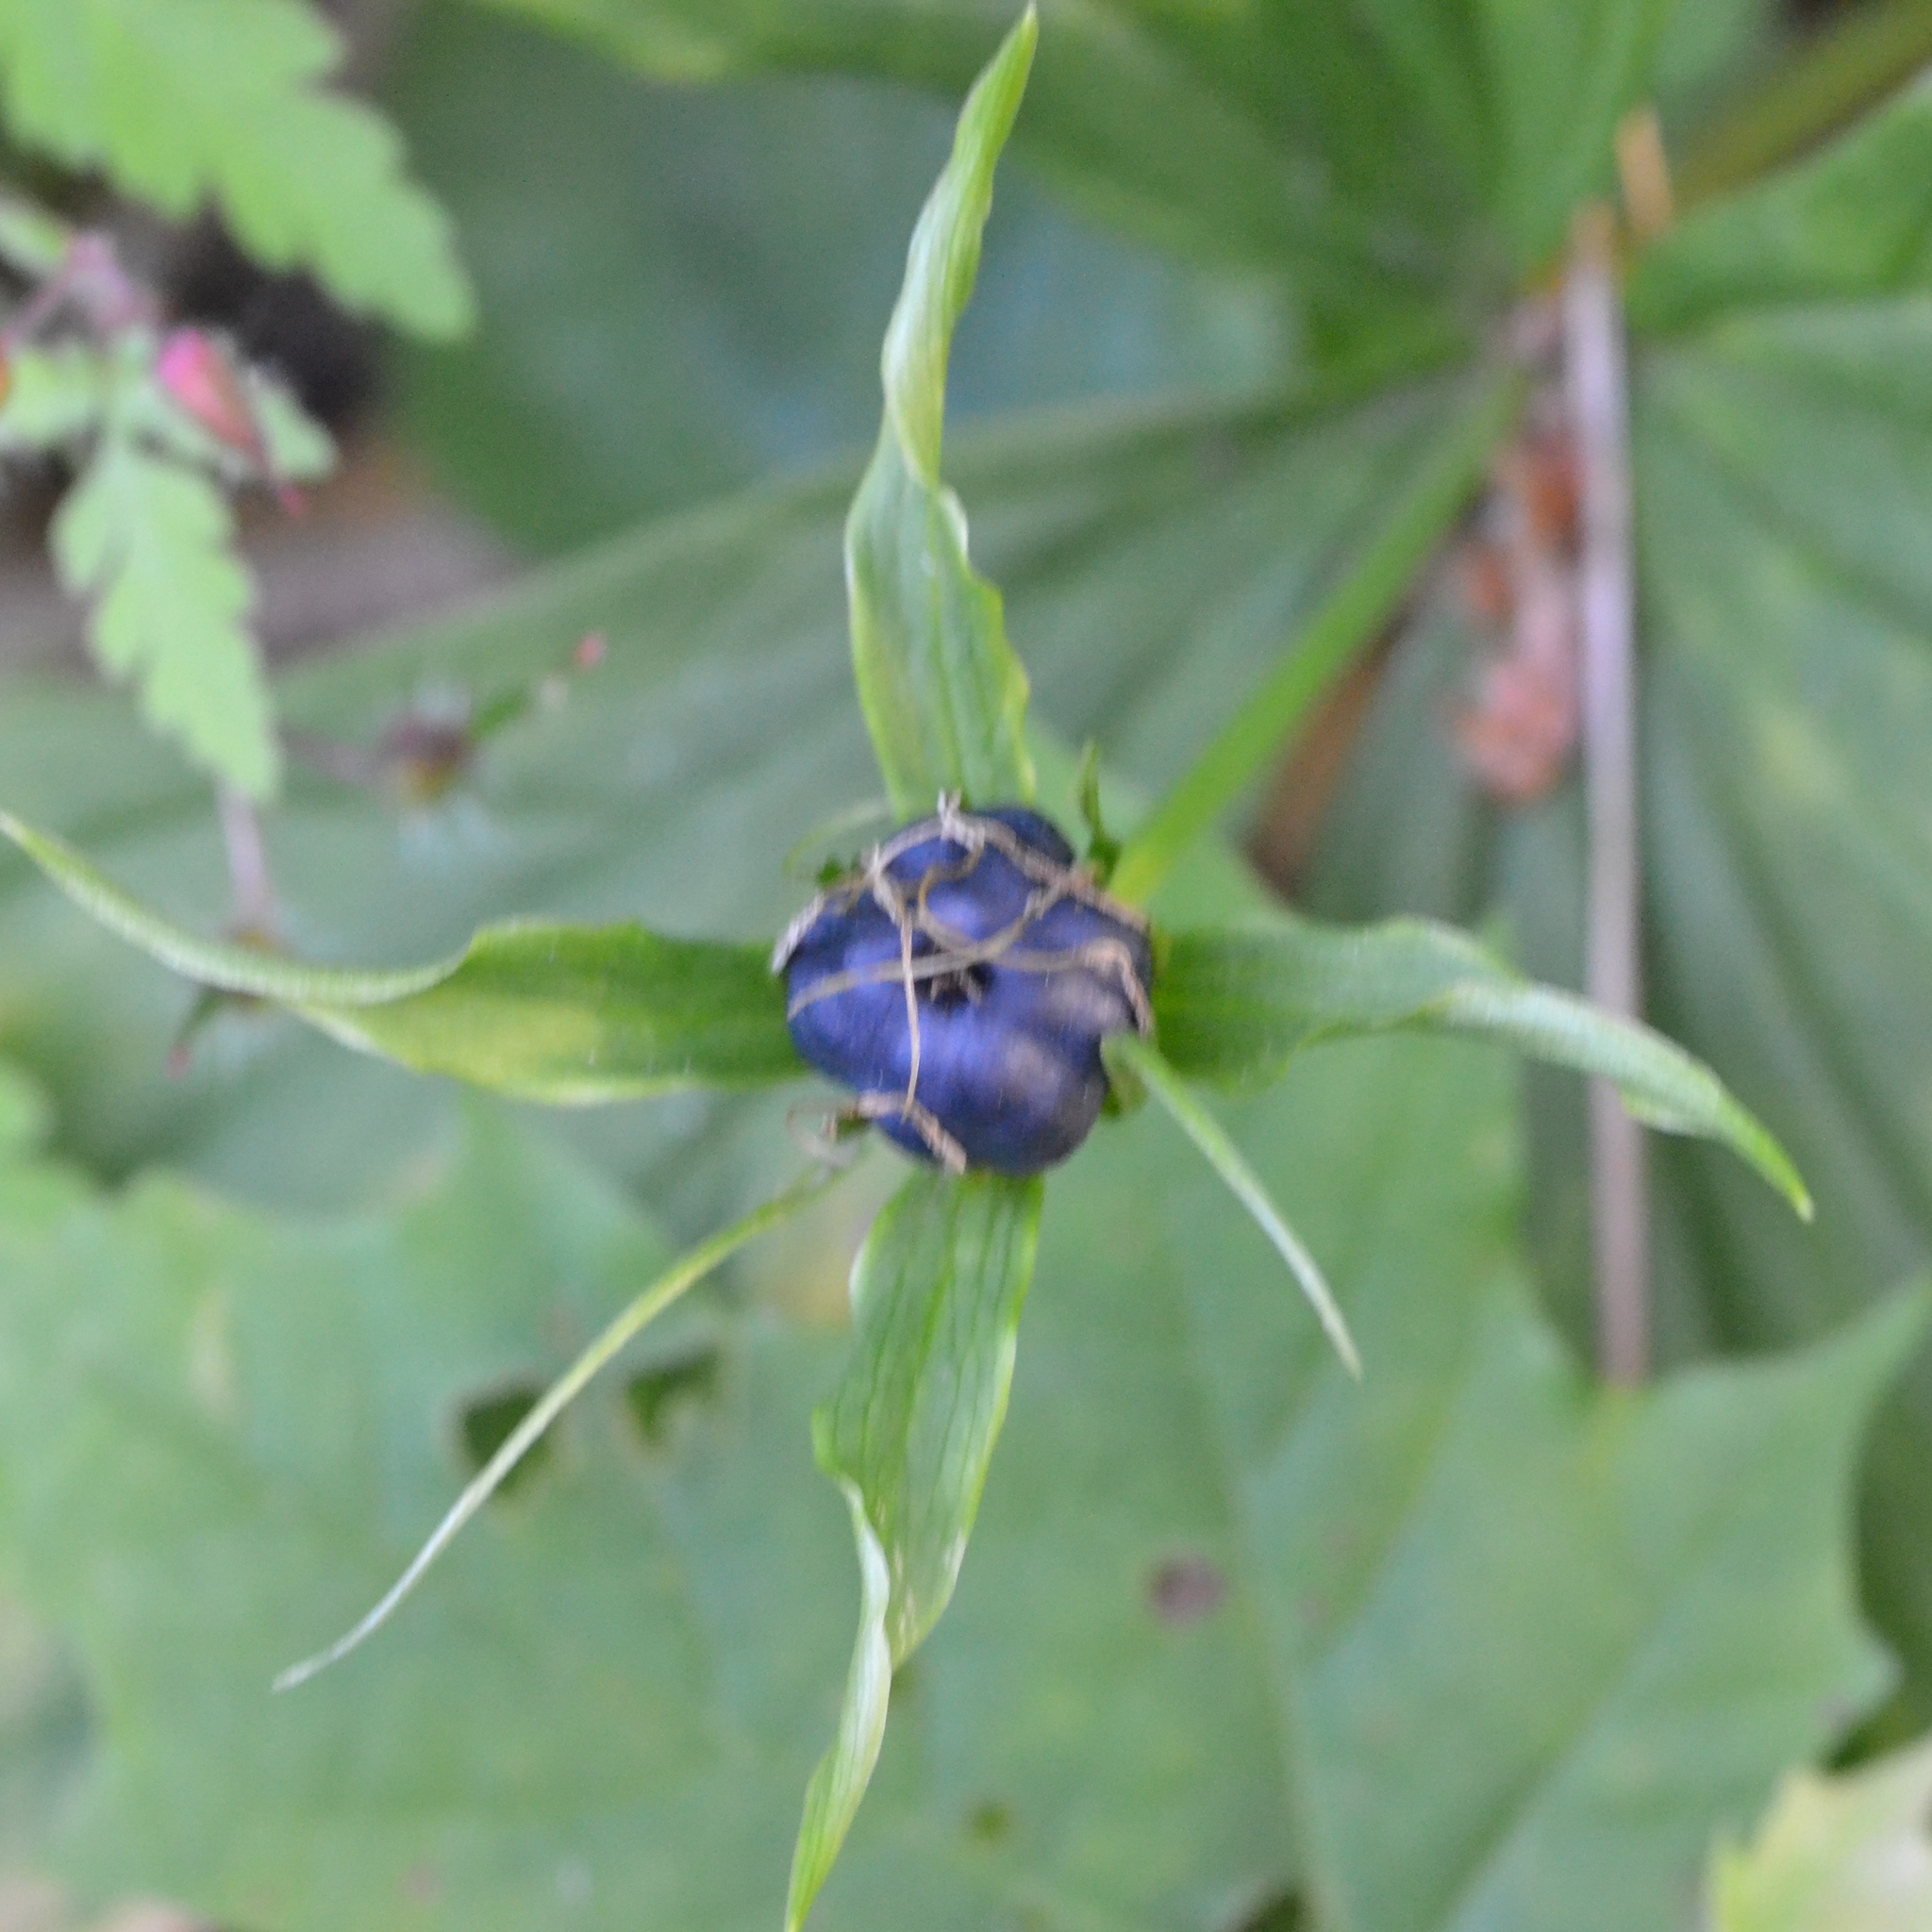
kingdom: Plantae
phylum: Tracheophyta
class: Liliopsida
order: Liliales
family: Melanthiaceae
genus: Paris
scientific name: Paris quadrifolia
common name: Herb-paris
